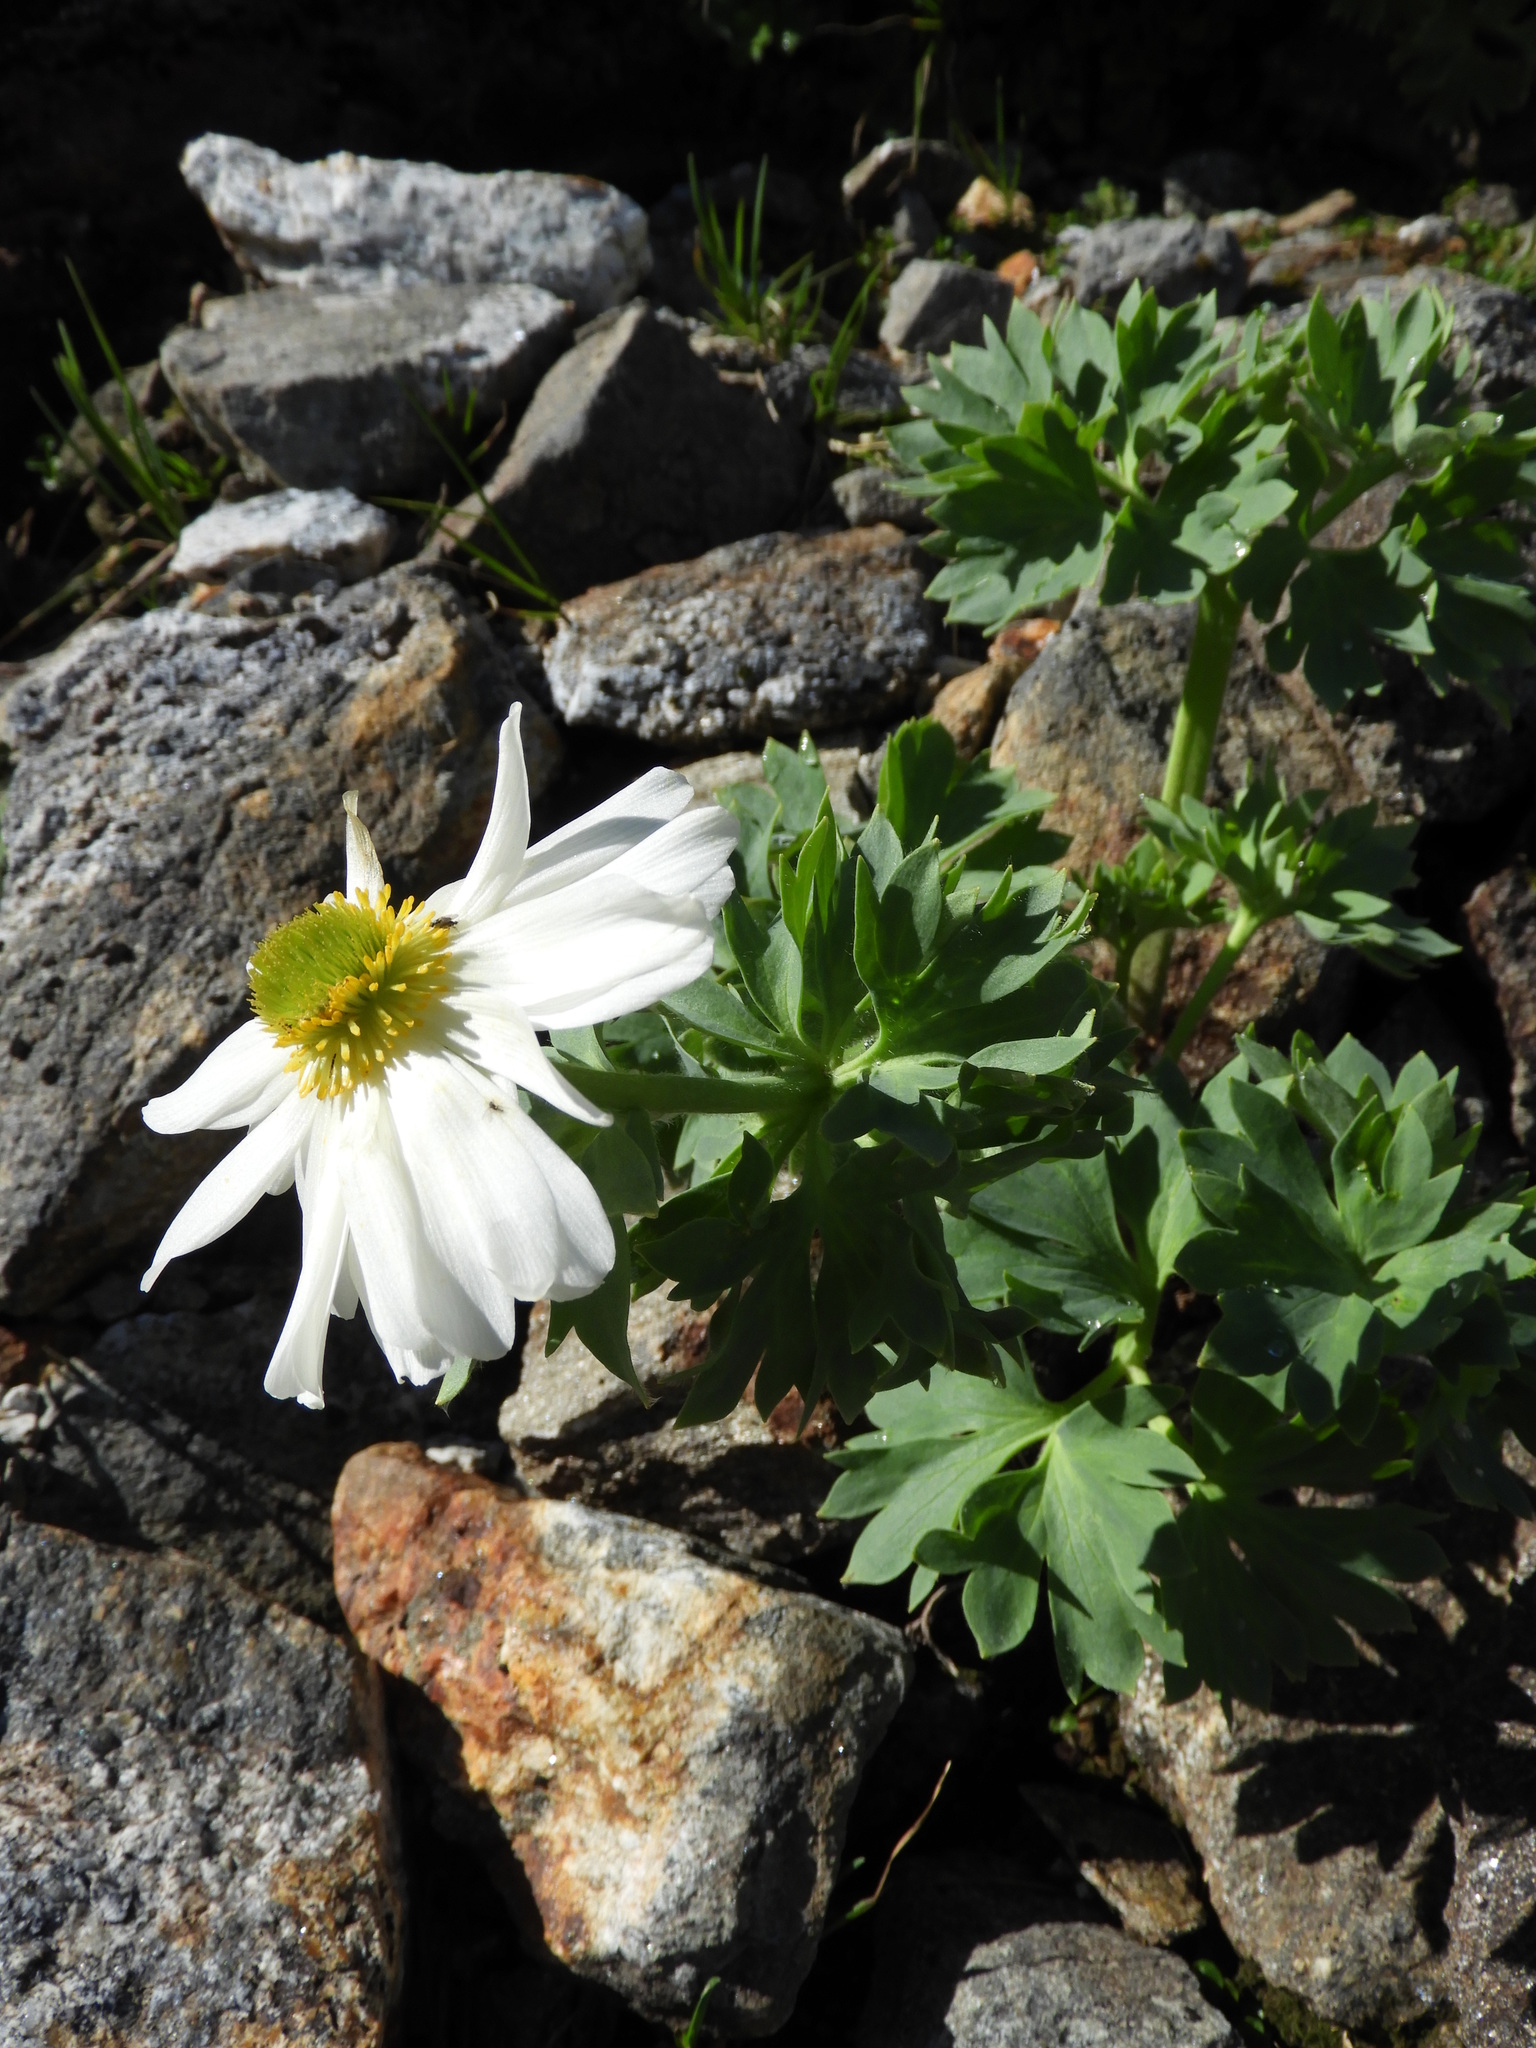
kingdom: Plantae
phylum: Tracheophyta
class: Magnoliopsida
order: Ranunculales
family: Ranunculaceae
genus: Ranunculus
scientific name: Ranunculus buchananii
